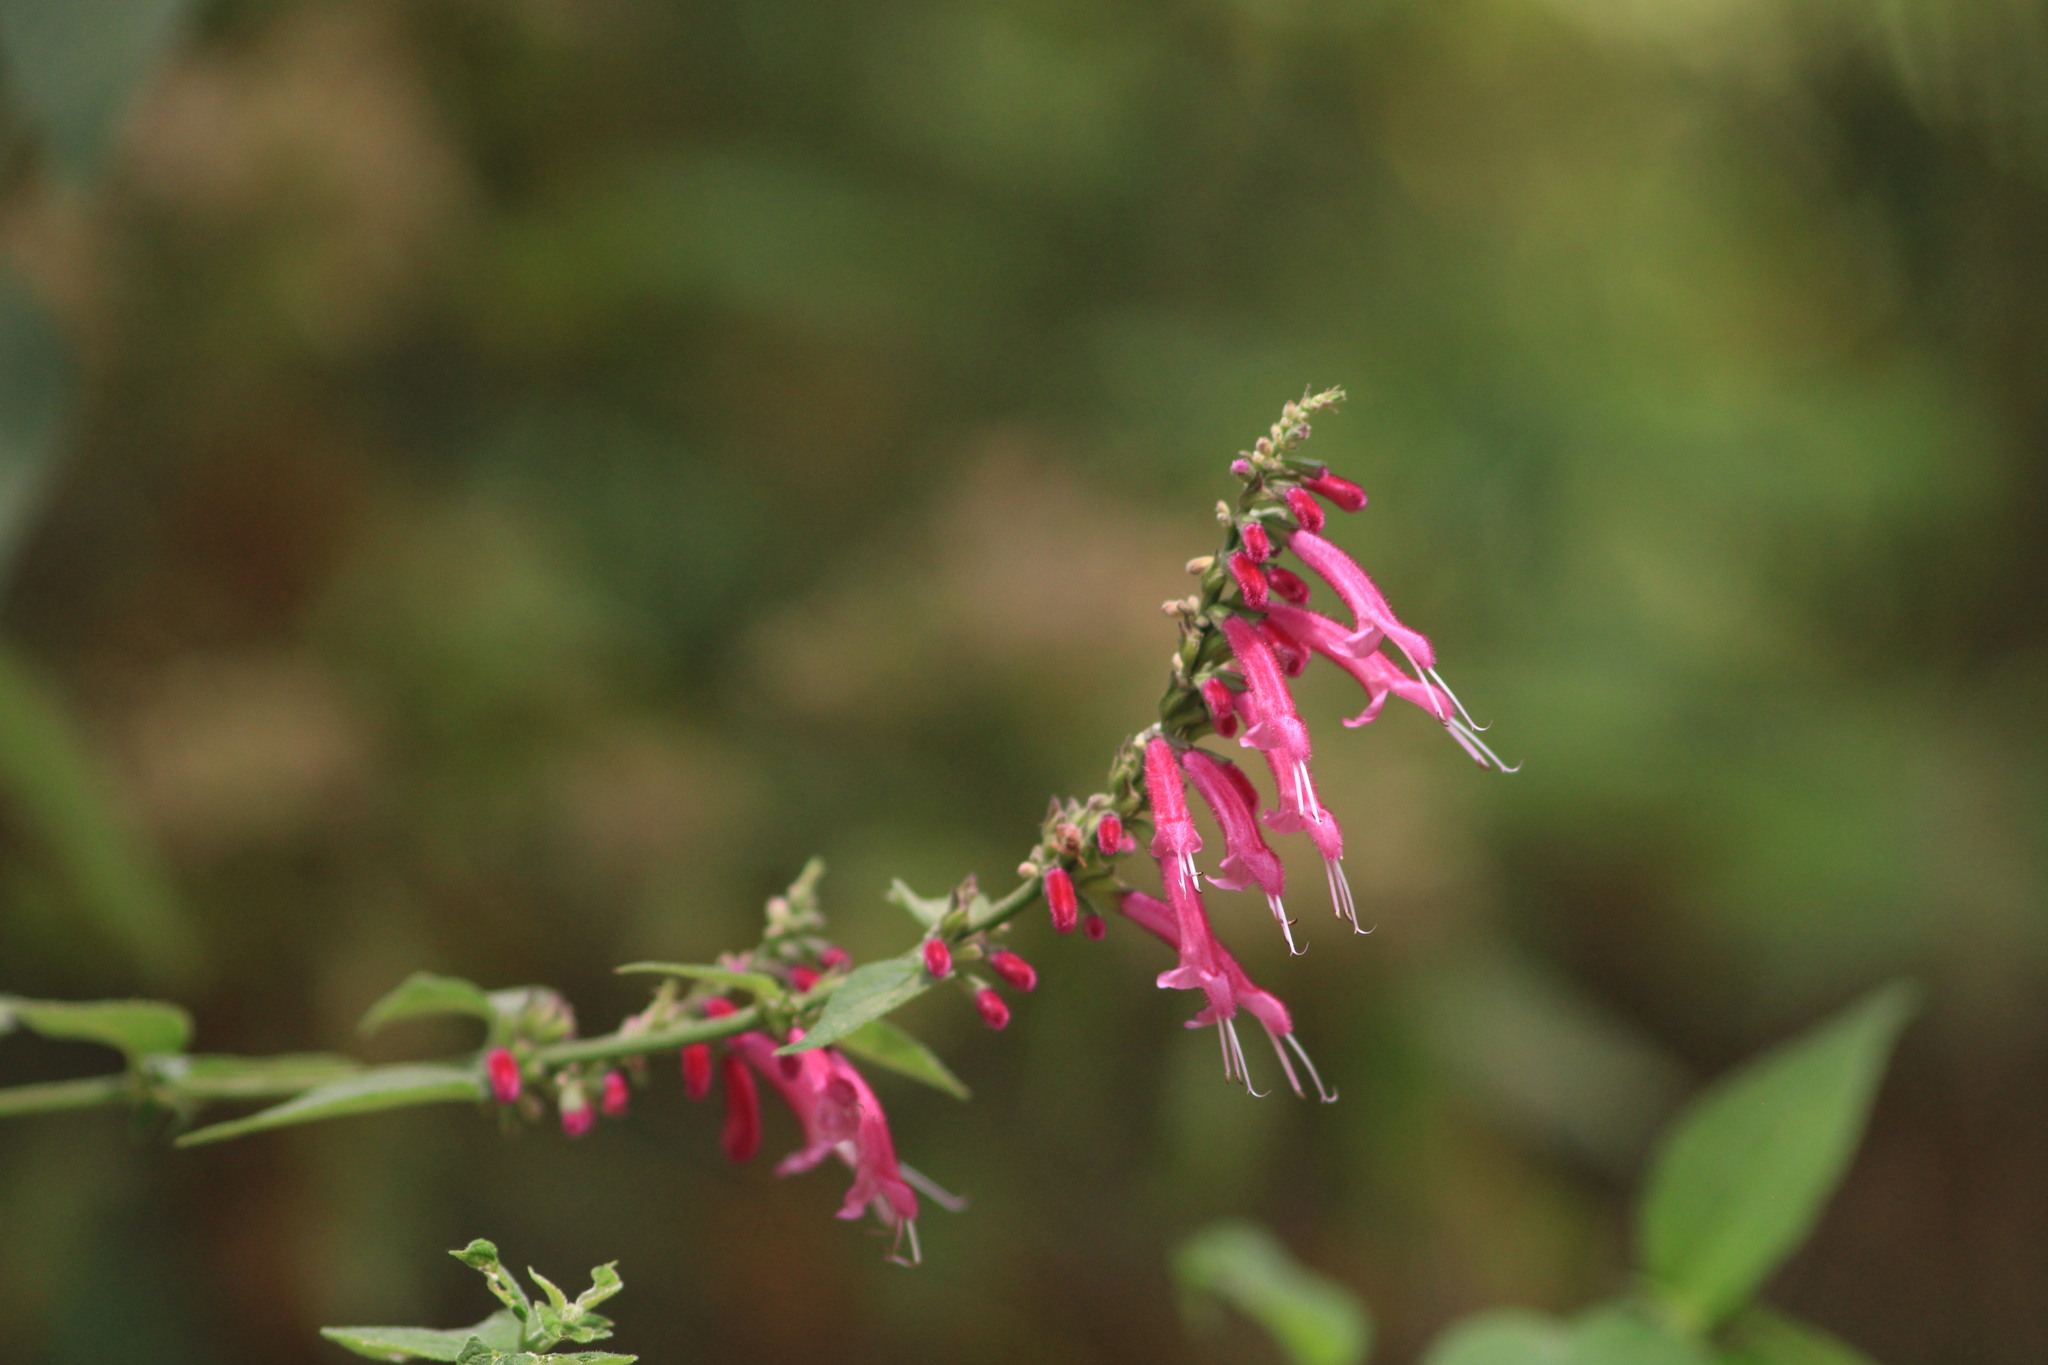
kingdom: Plantae
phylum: Tracheophyta
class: Magnoliopsida
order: Lamiales
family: Lamiaceae
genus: Salvia
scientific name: Salvia iodantha
